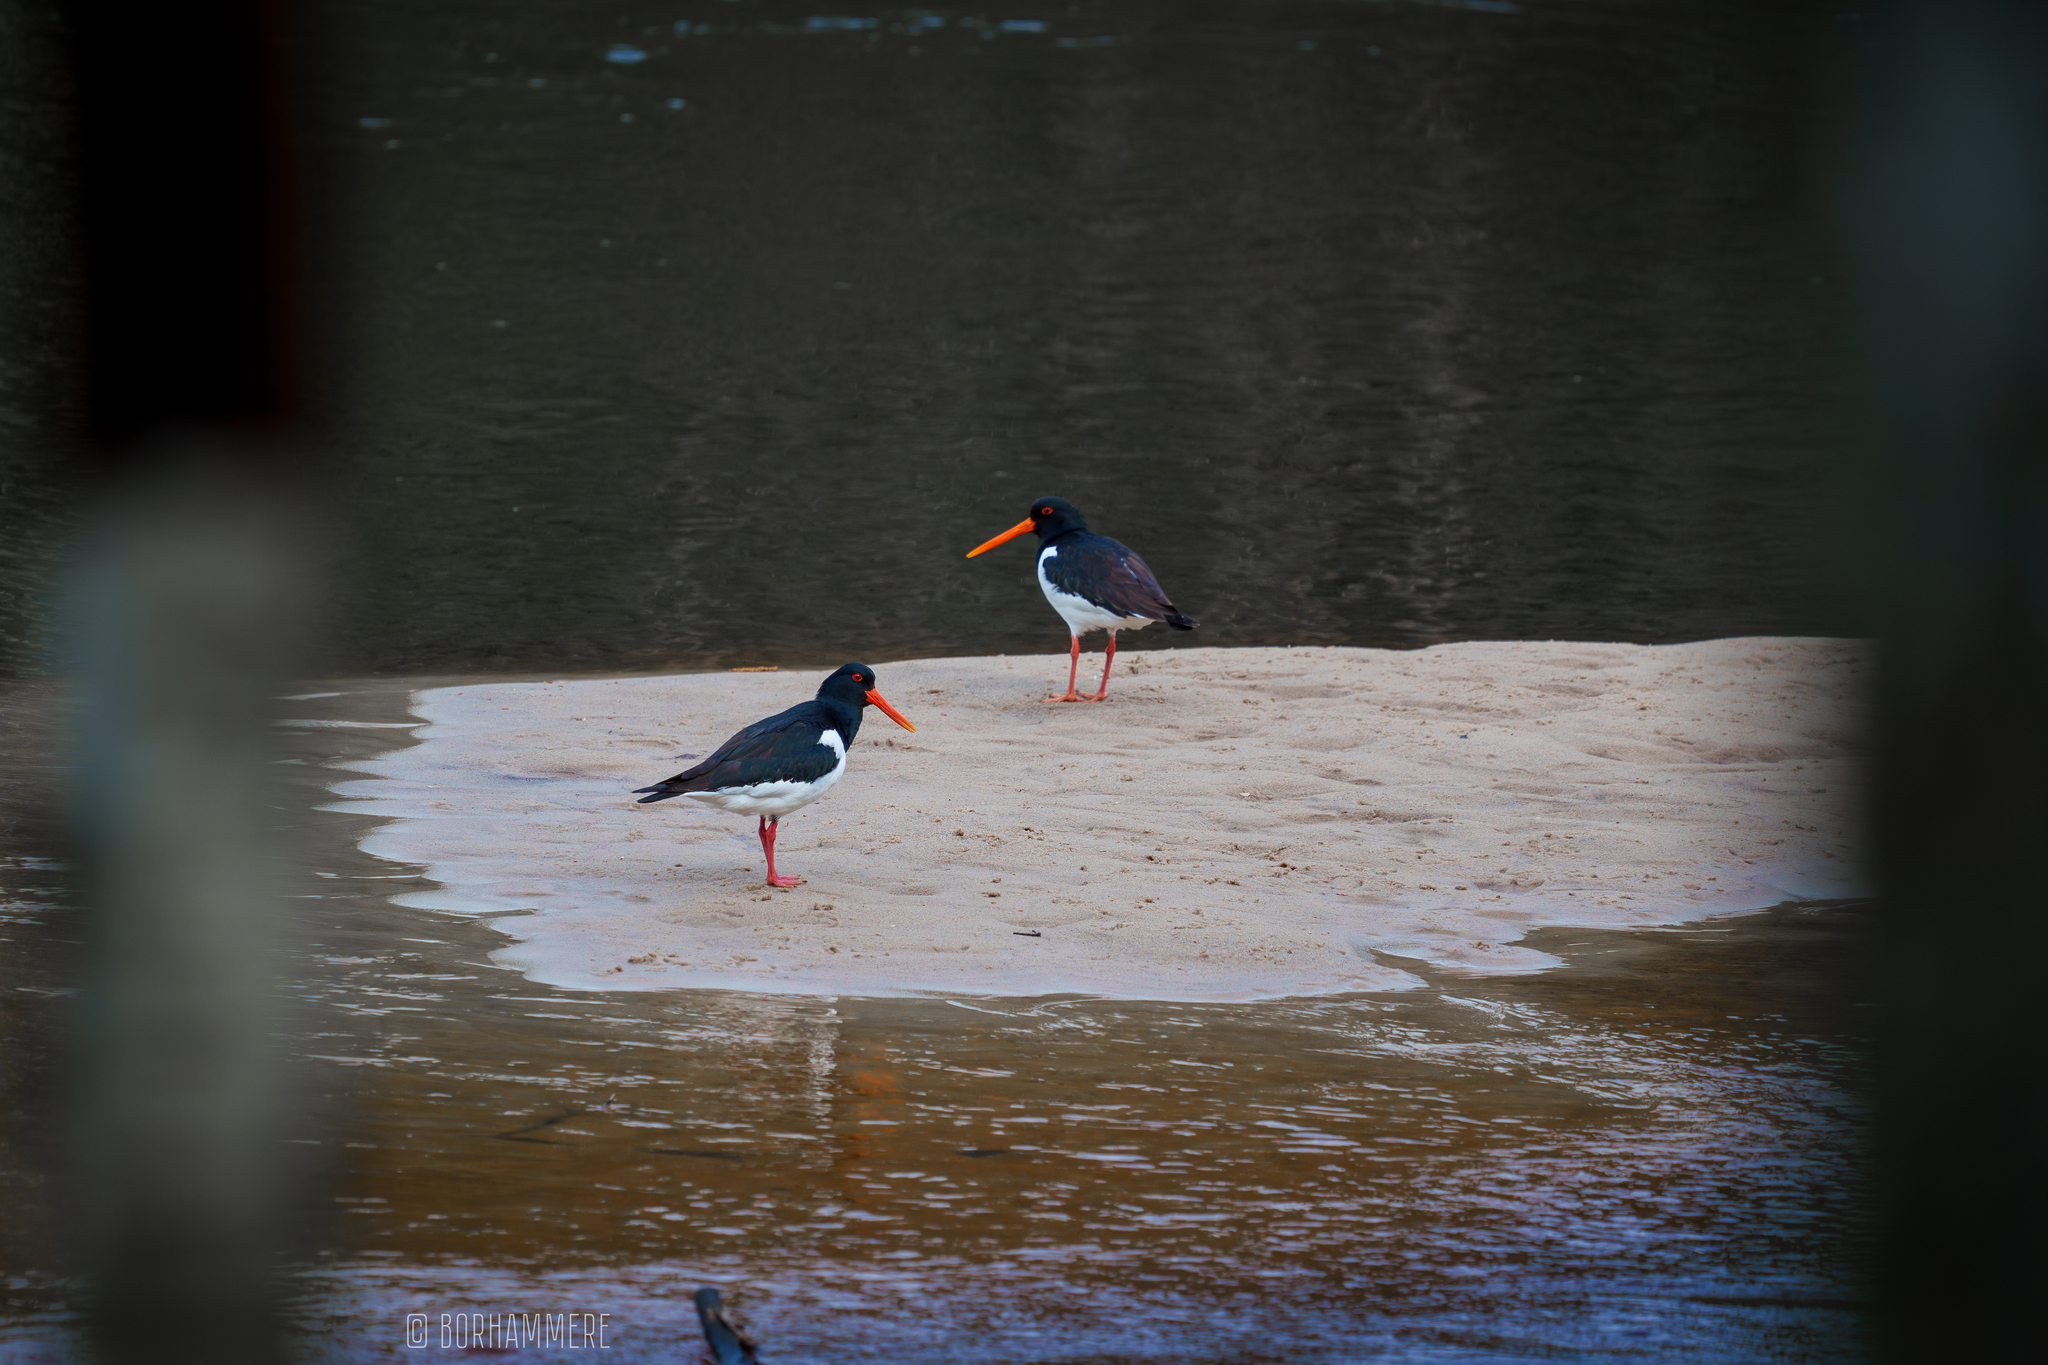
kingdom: Animalia
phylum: Chordata
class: Aves
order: Charadriiformes
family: Haematopodidae
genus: Haematopus
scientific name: Haematopus ostralegus
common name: Eurasian oystercatcher
